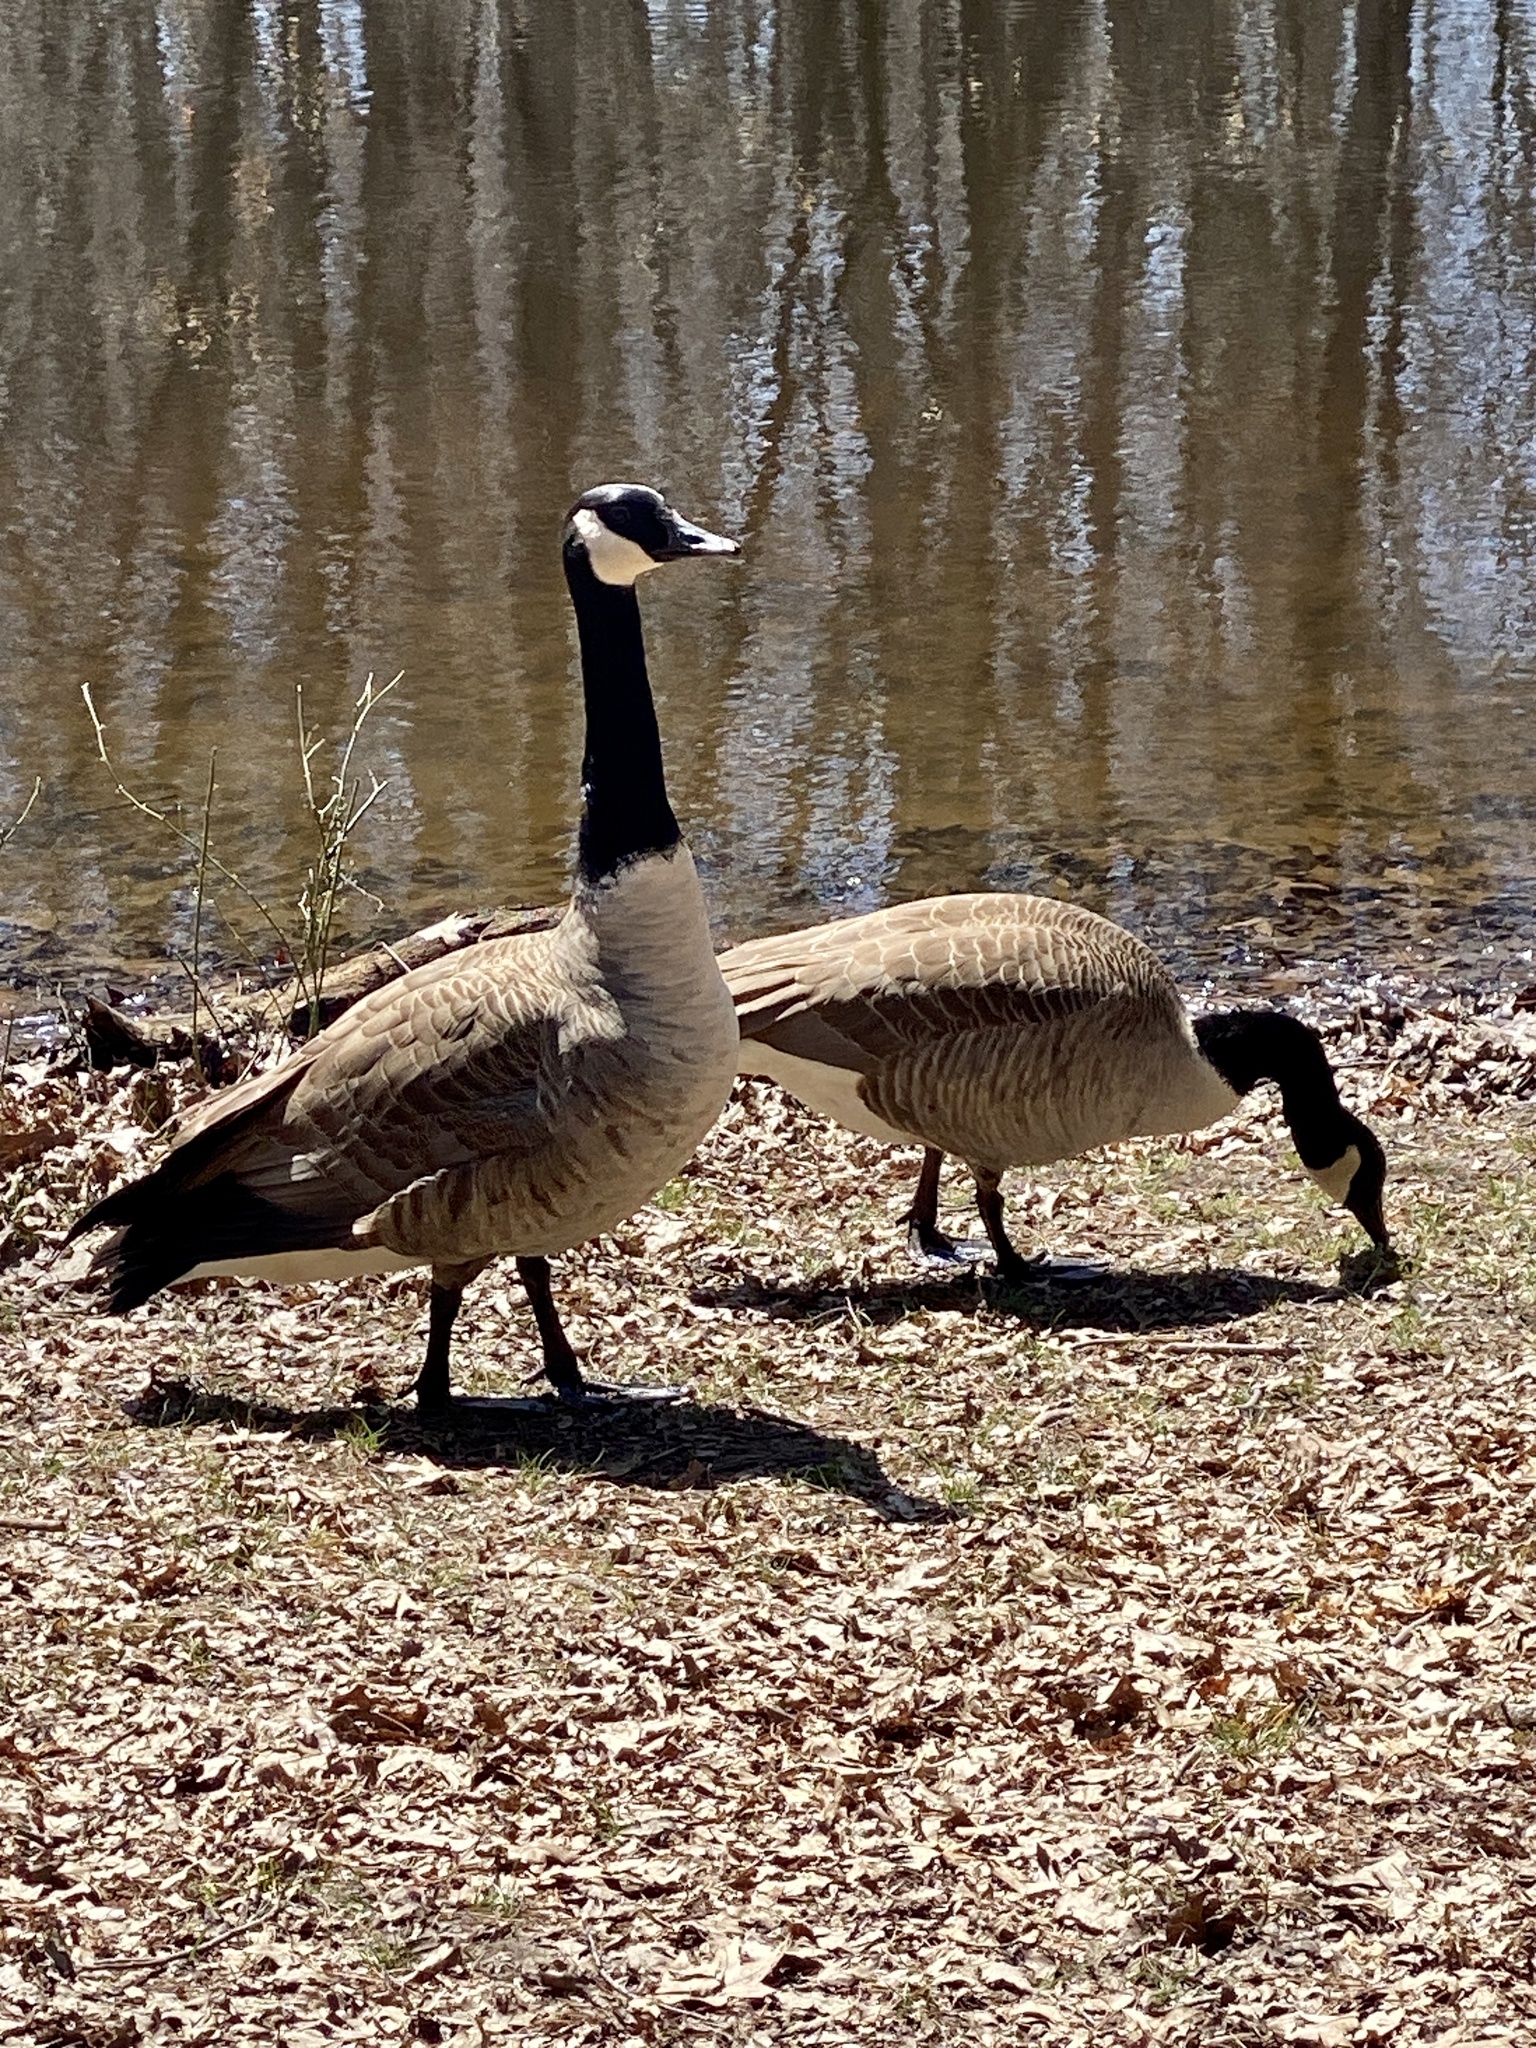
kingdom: Animalia
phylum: Chordata
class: Aves
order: Anseriformes
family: Anatidae
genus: Branta
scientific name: Branta canadensis
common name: Canada goose
